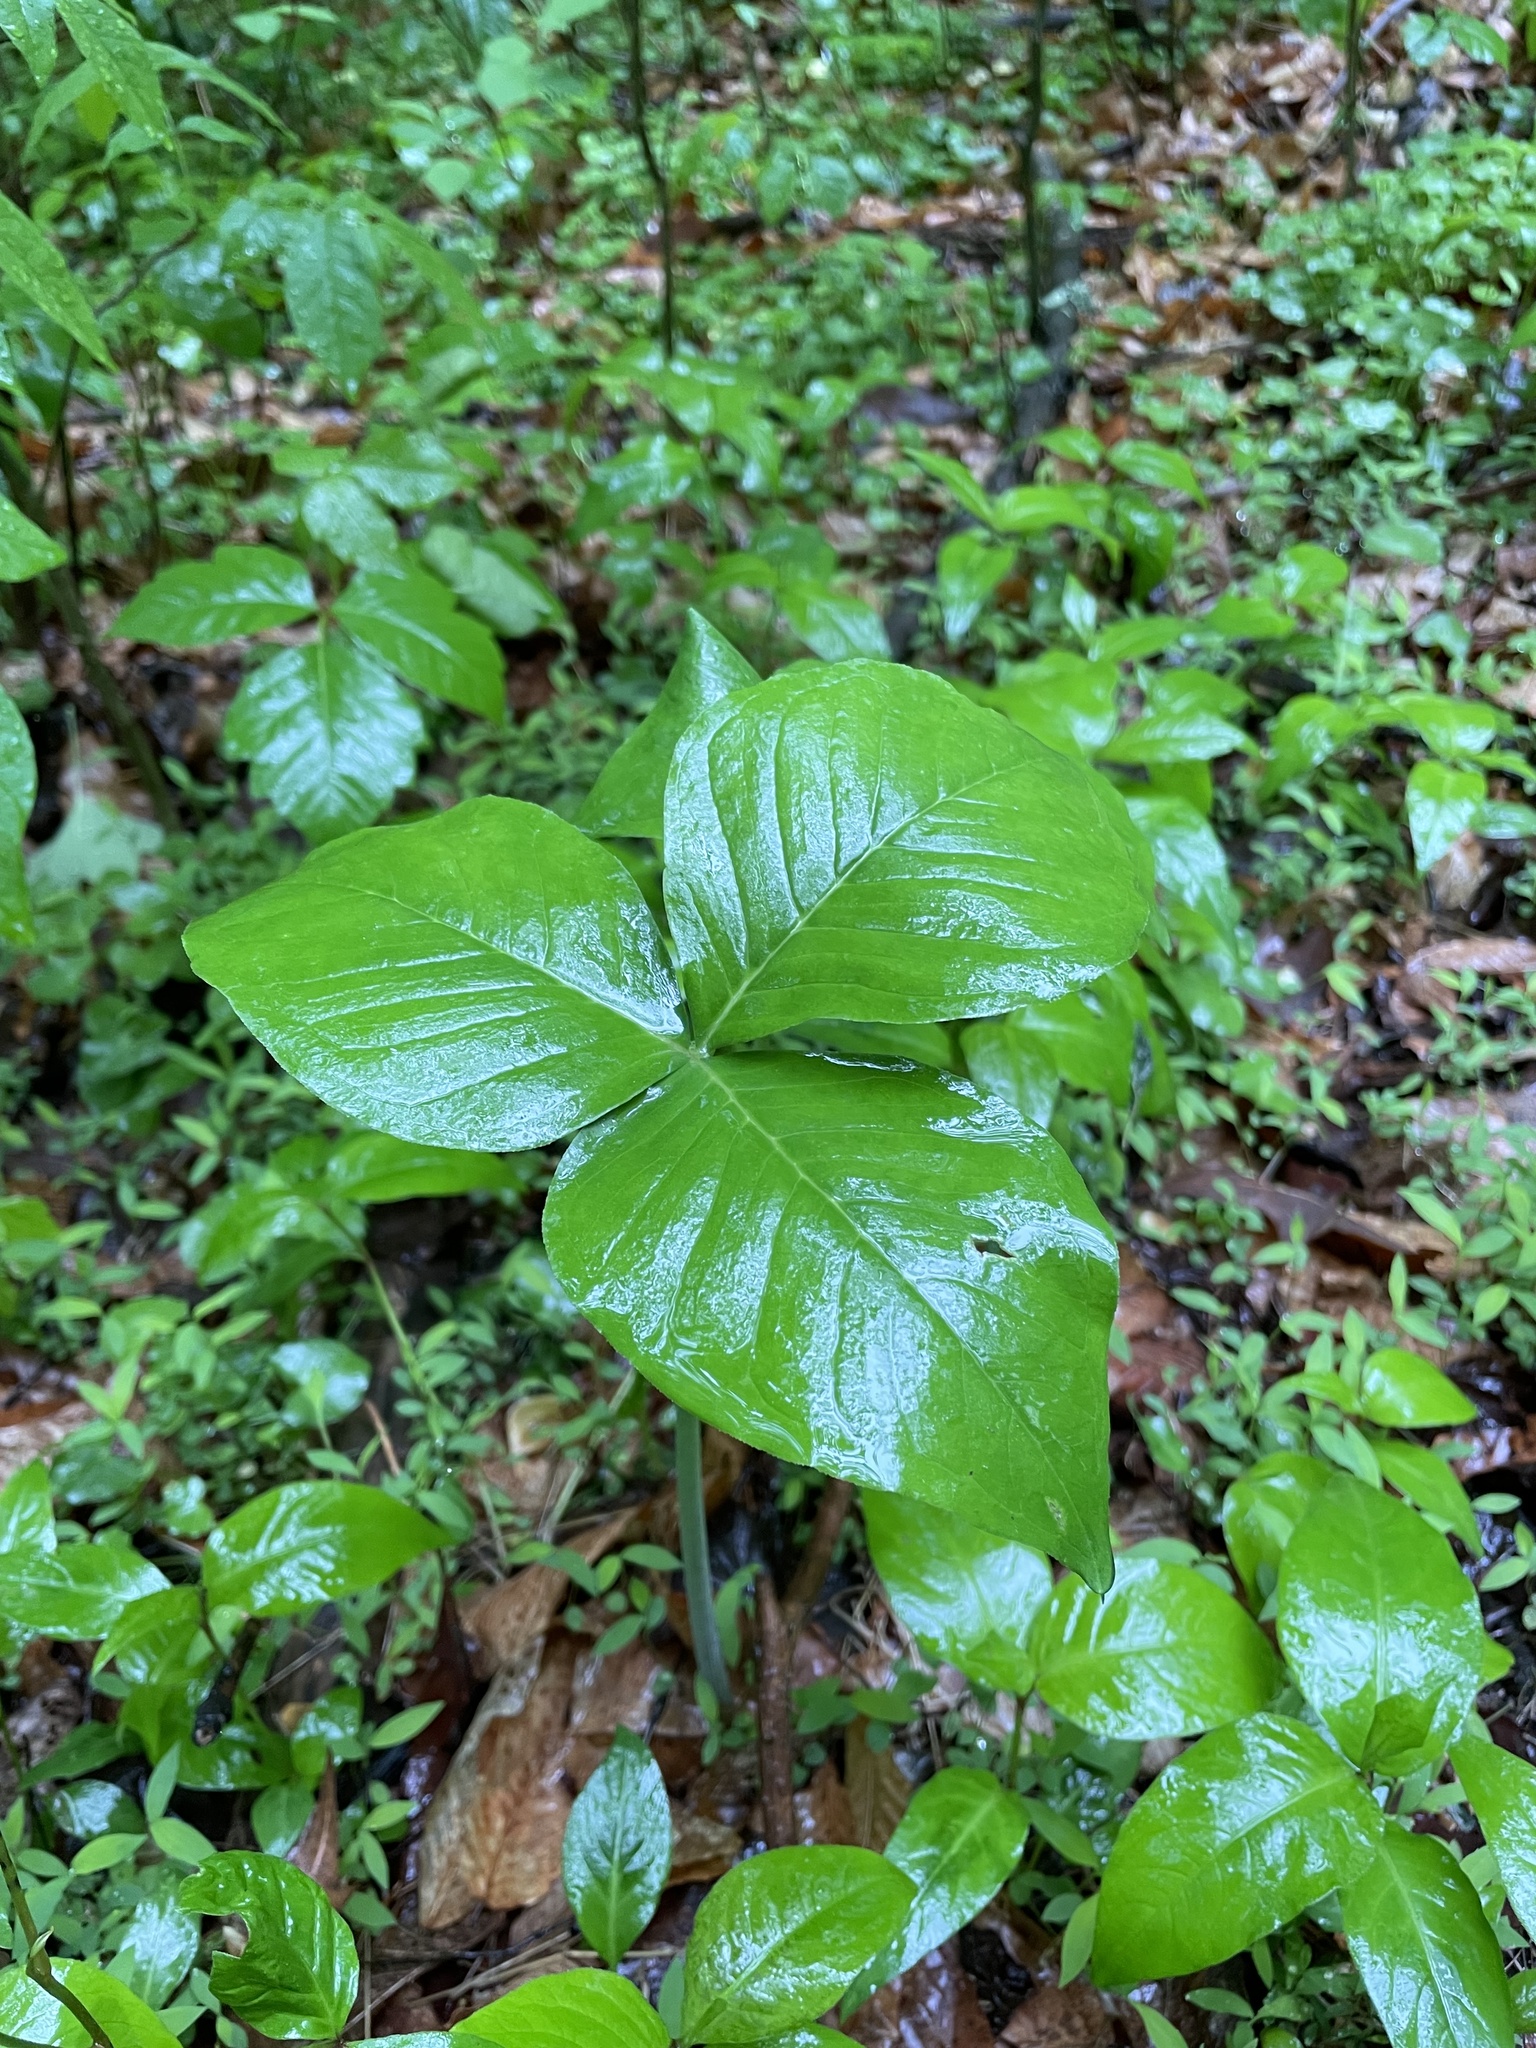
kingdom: Plantae
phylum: Tracheophyta
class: Liliopsida
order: Alismatales
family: Araceae
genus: Arisaema
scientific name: Arisaema triphyllum
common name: Jack-in-the-pulpit
